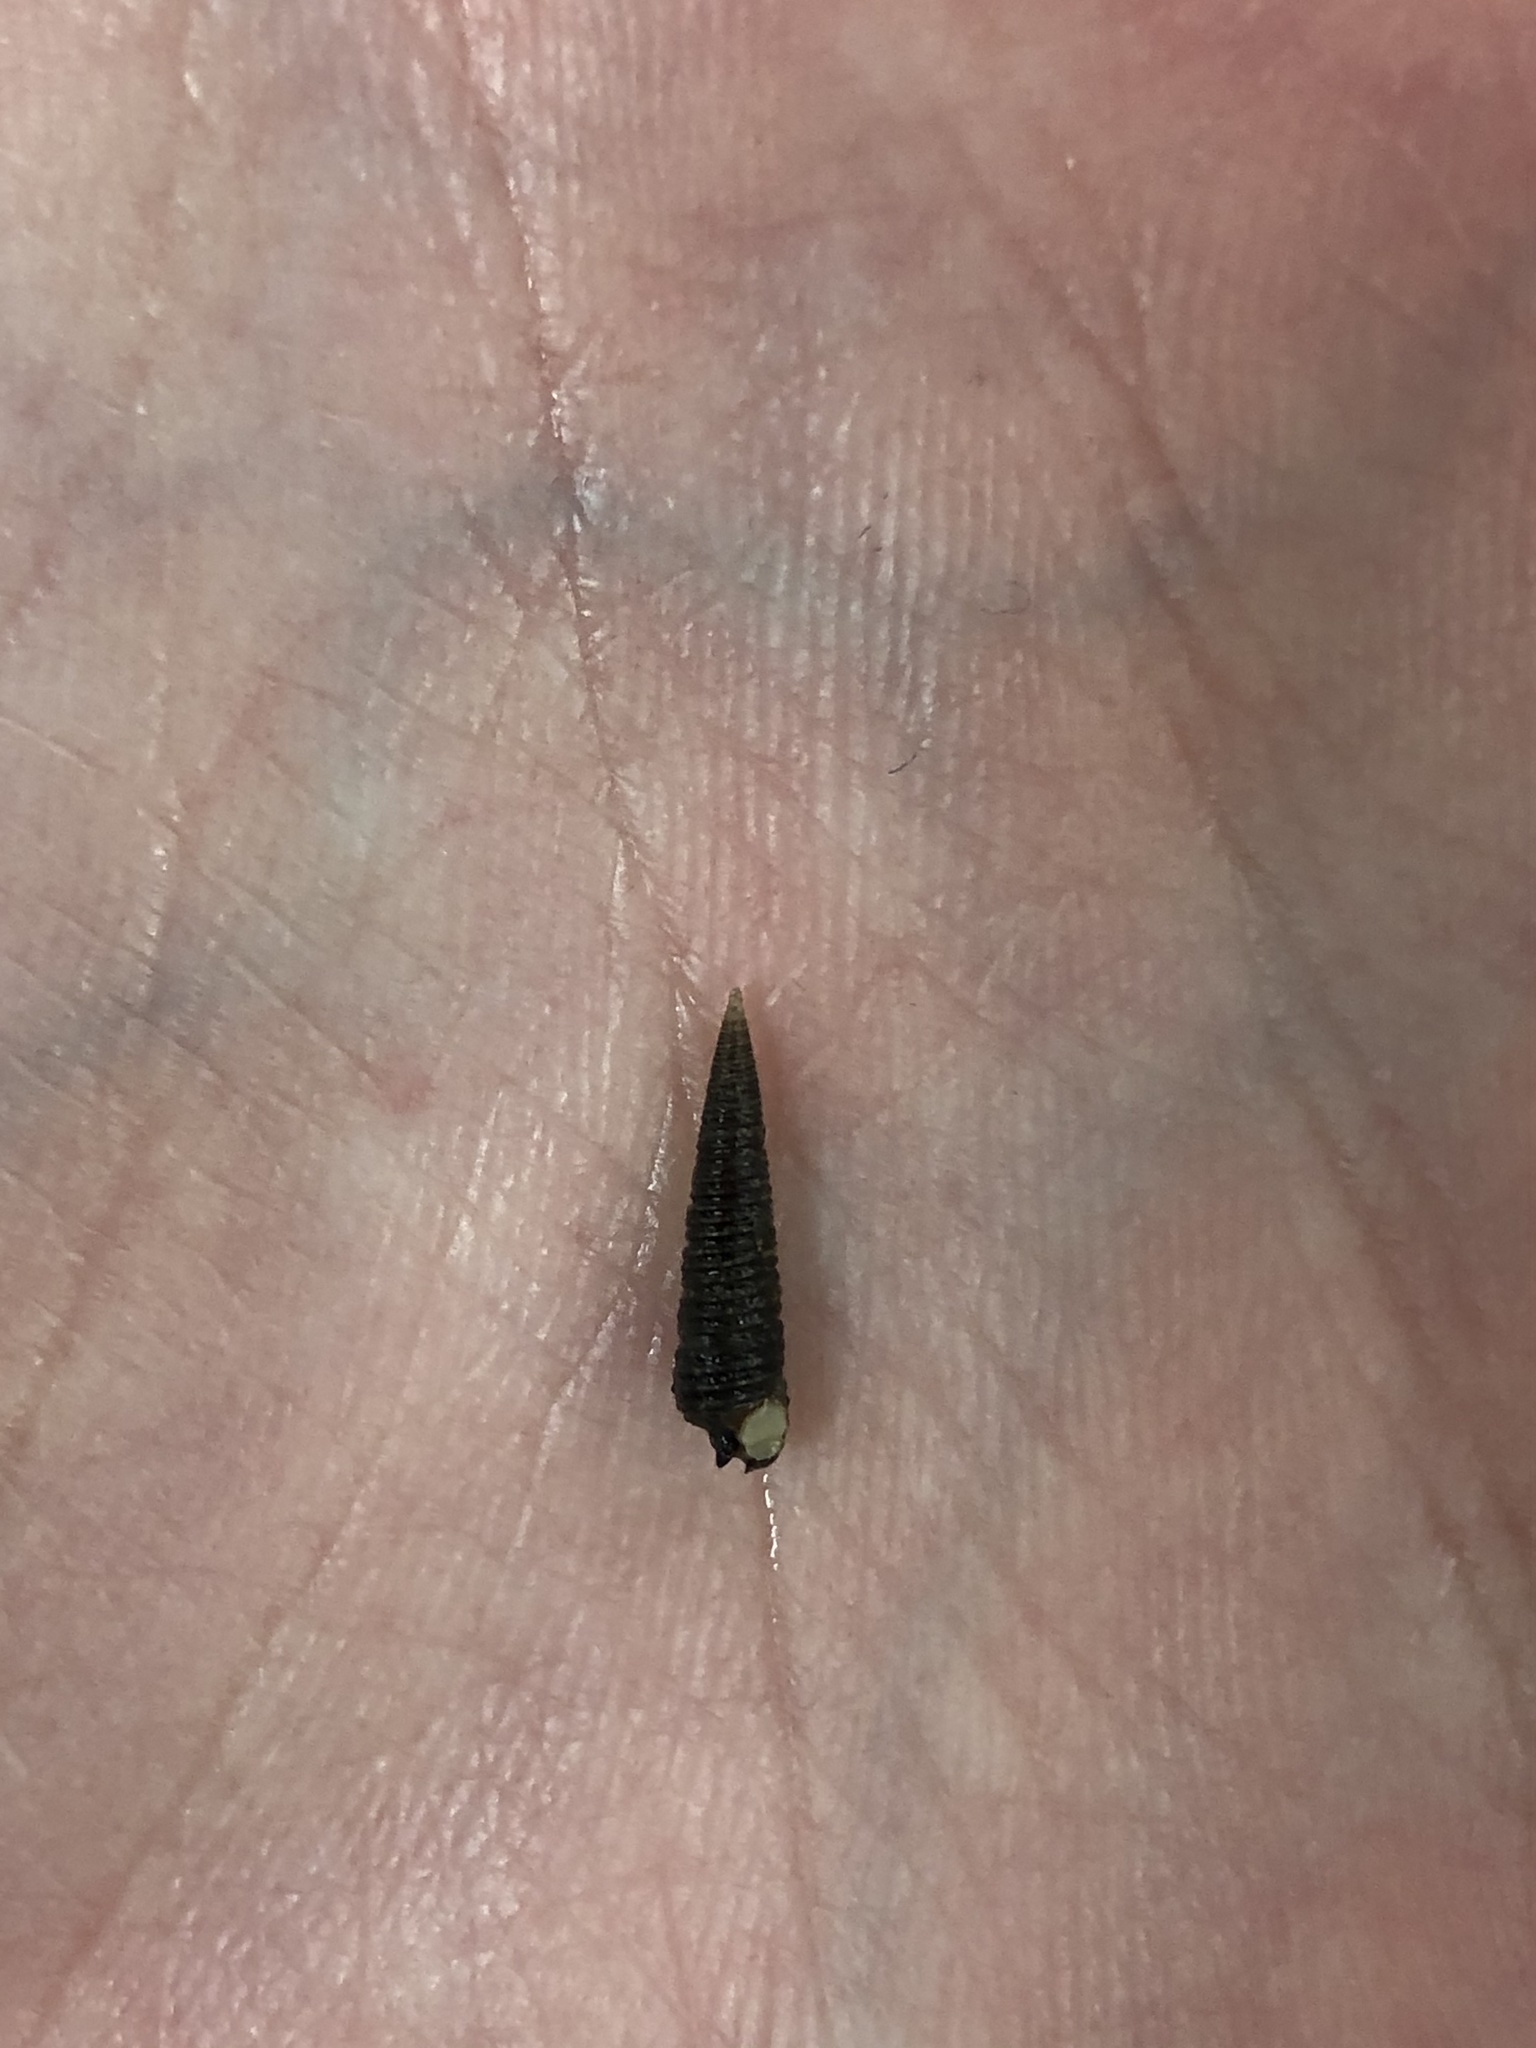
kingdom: Animalia
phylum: Mollusca
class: Gastropoda
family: Cerithiopsidae
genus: Seila
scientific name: Seila adamsii
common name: Adam's miniature cerith
